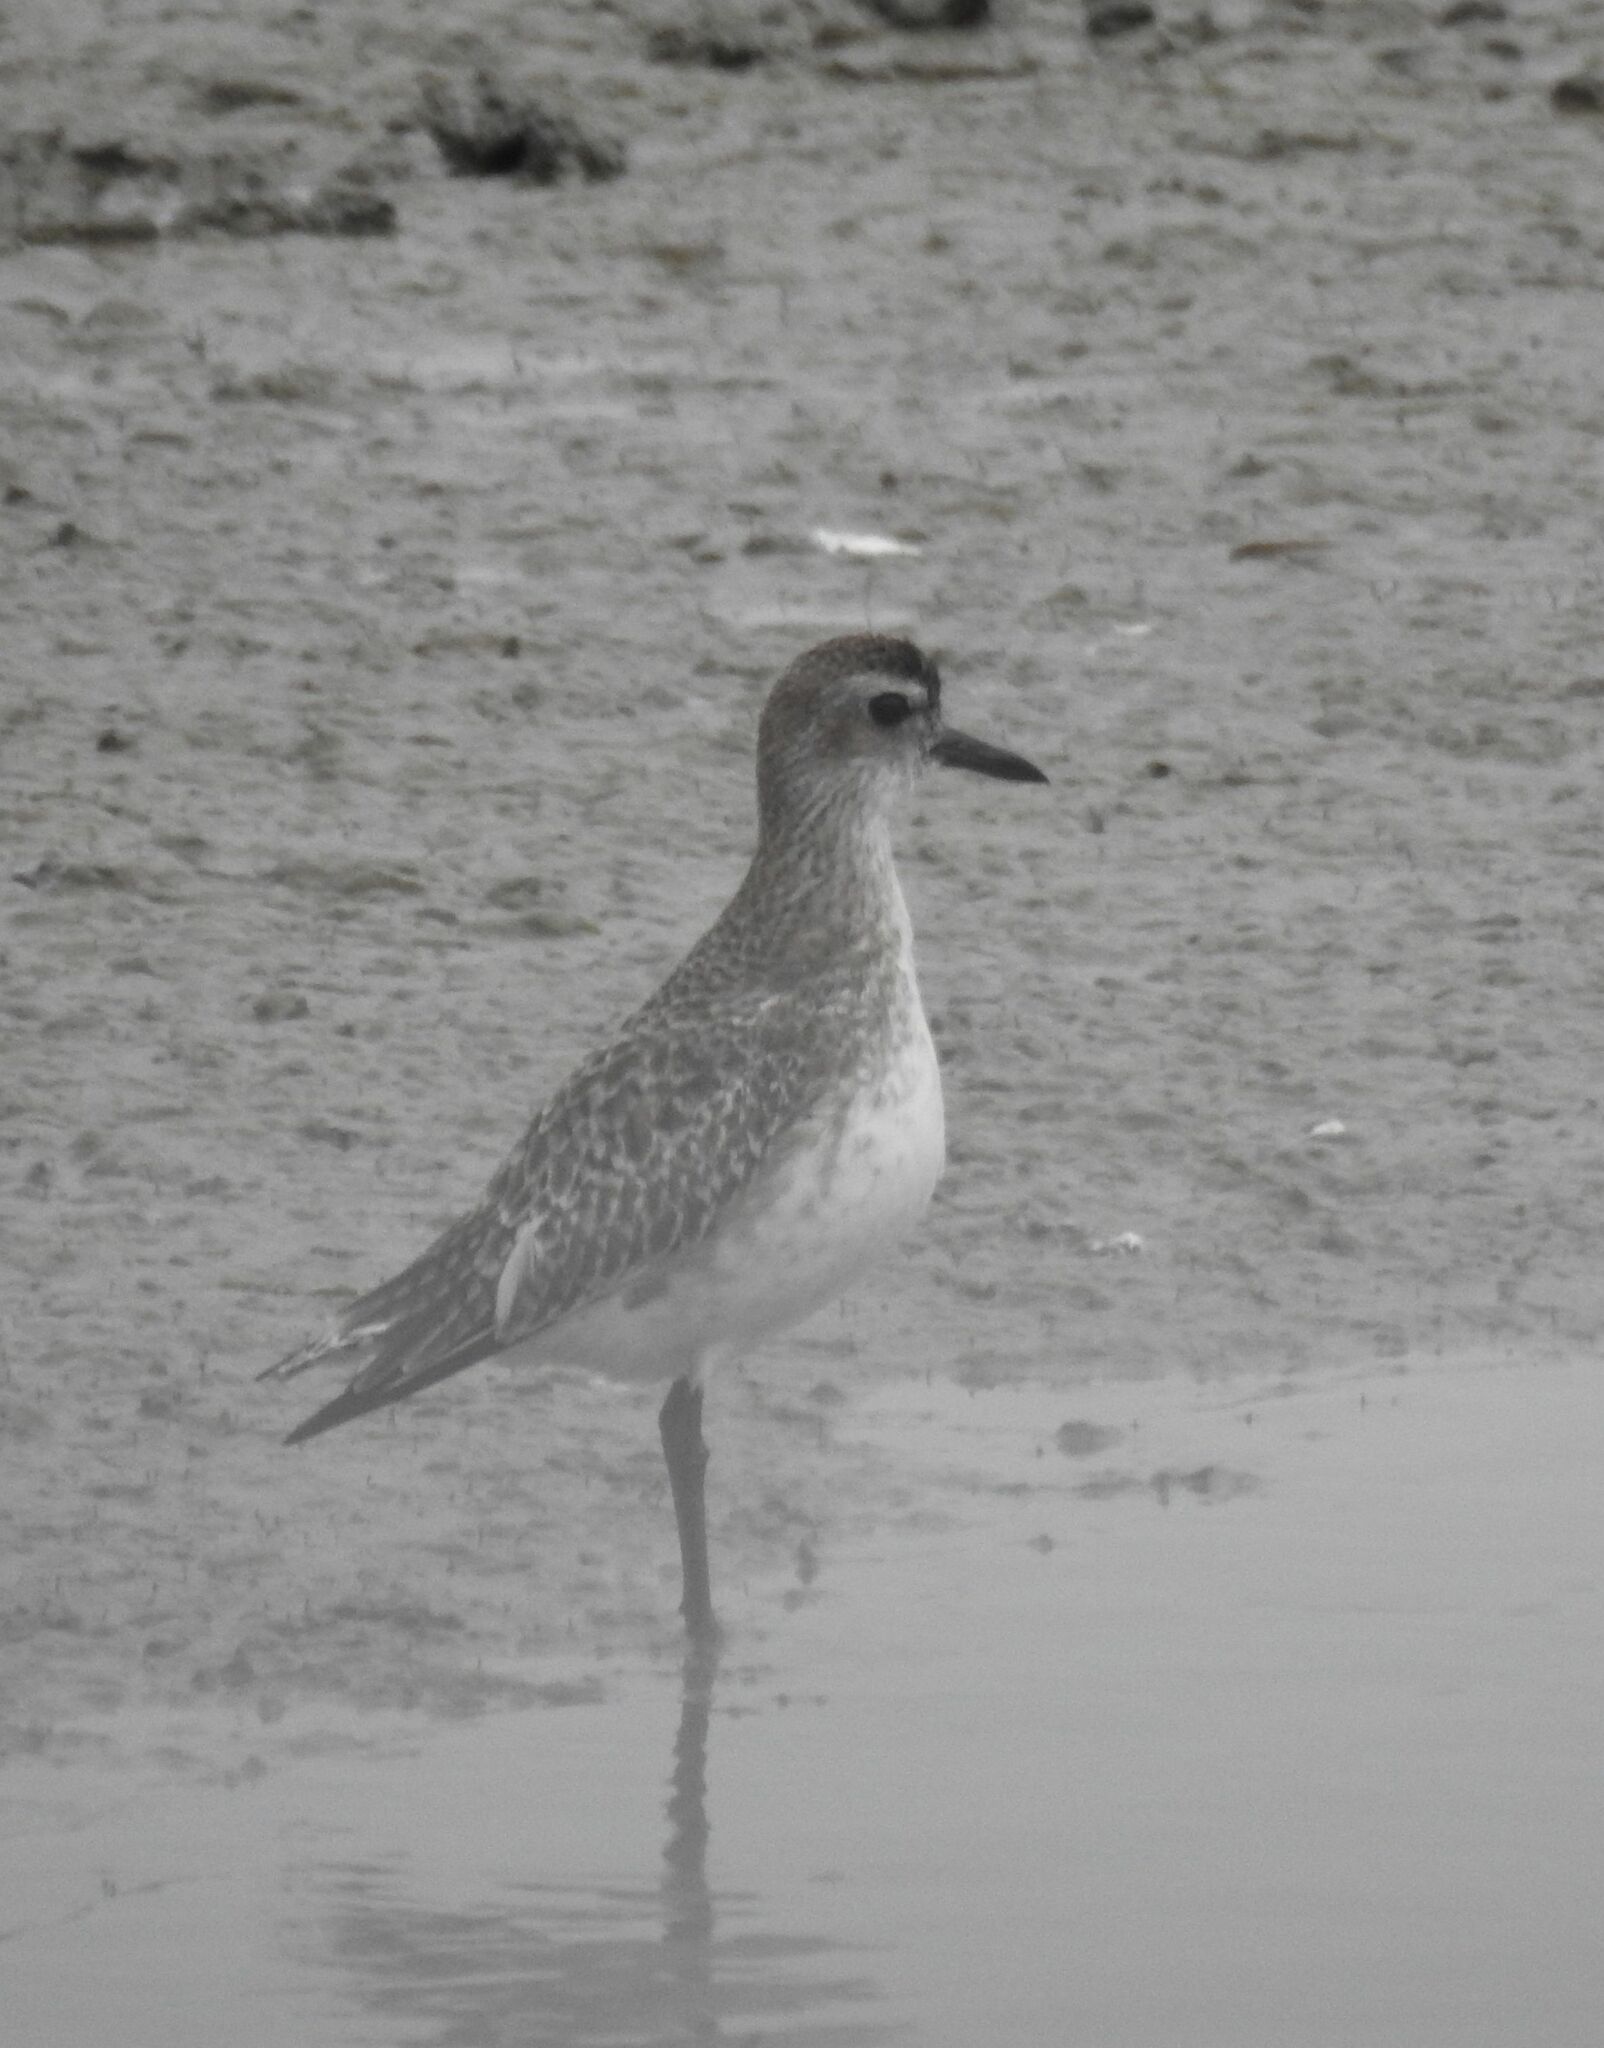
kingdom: Animalia
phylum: Chordata
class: Aves
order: Charadriiformes
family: Charadriidae
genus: Pluvialis
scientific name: Pluvialis squatarola
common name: Grey plover
